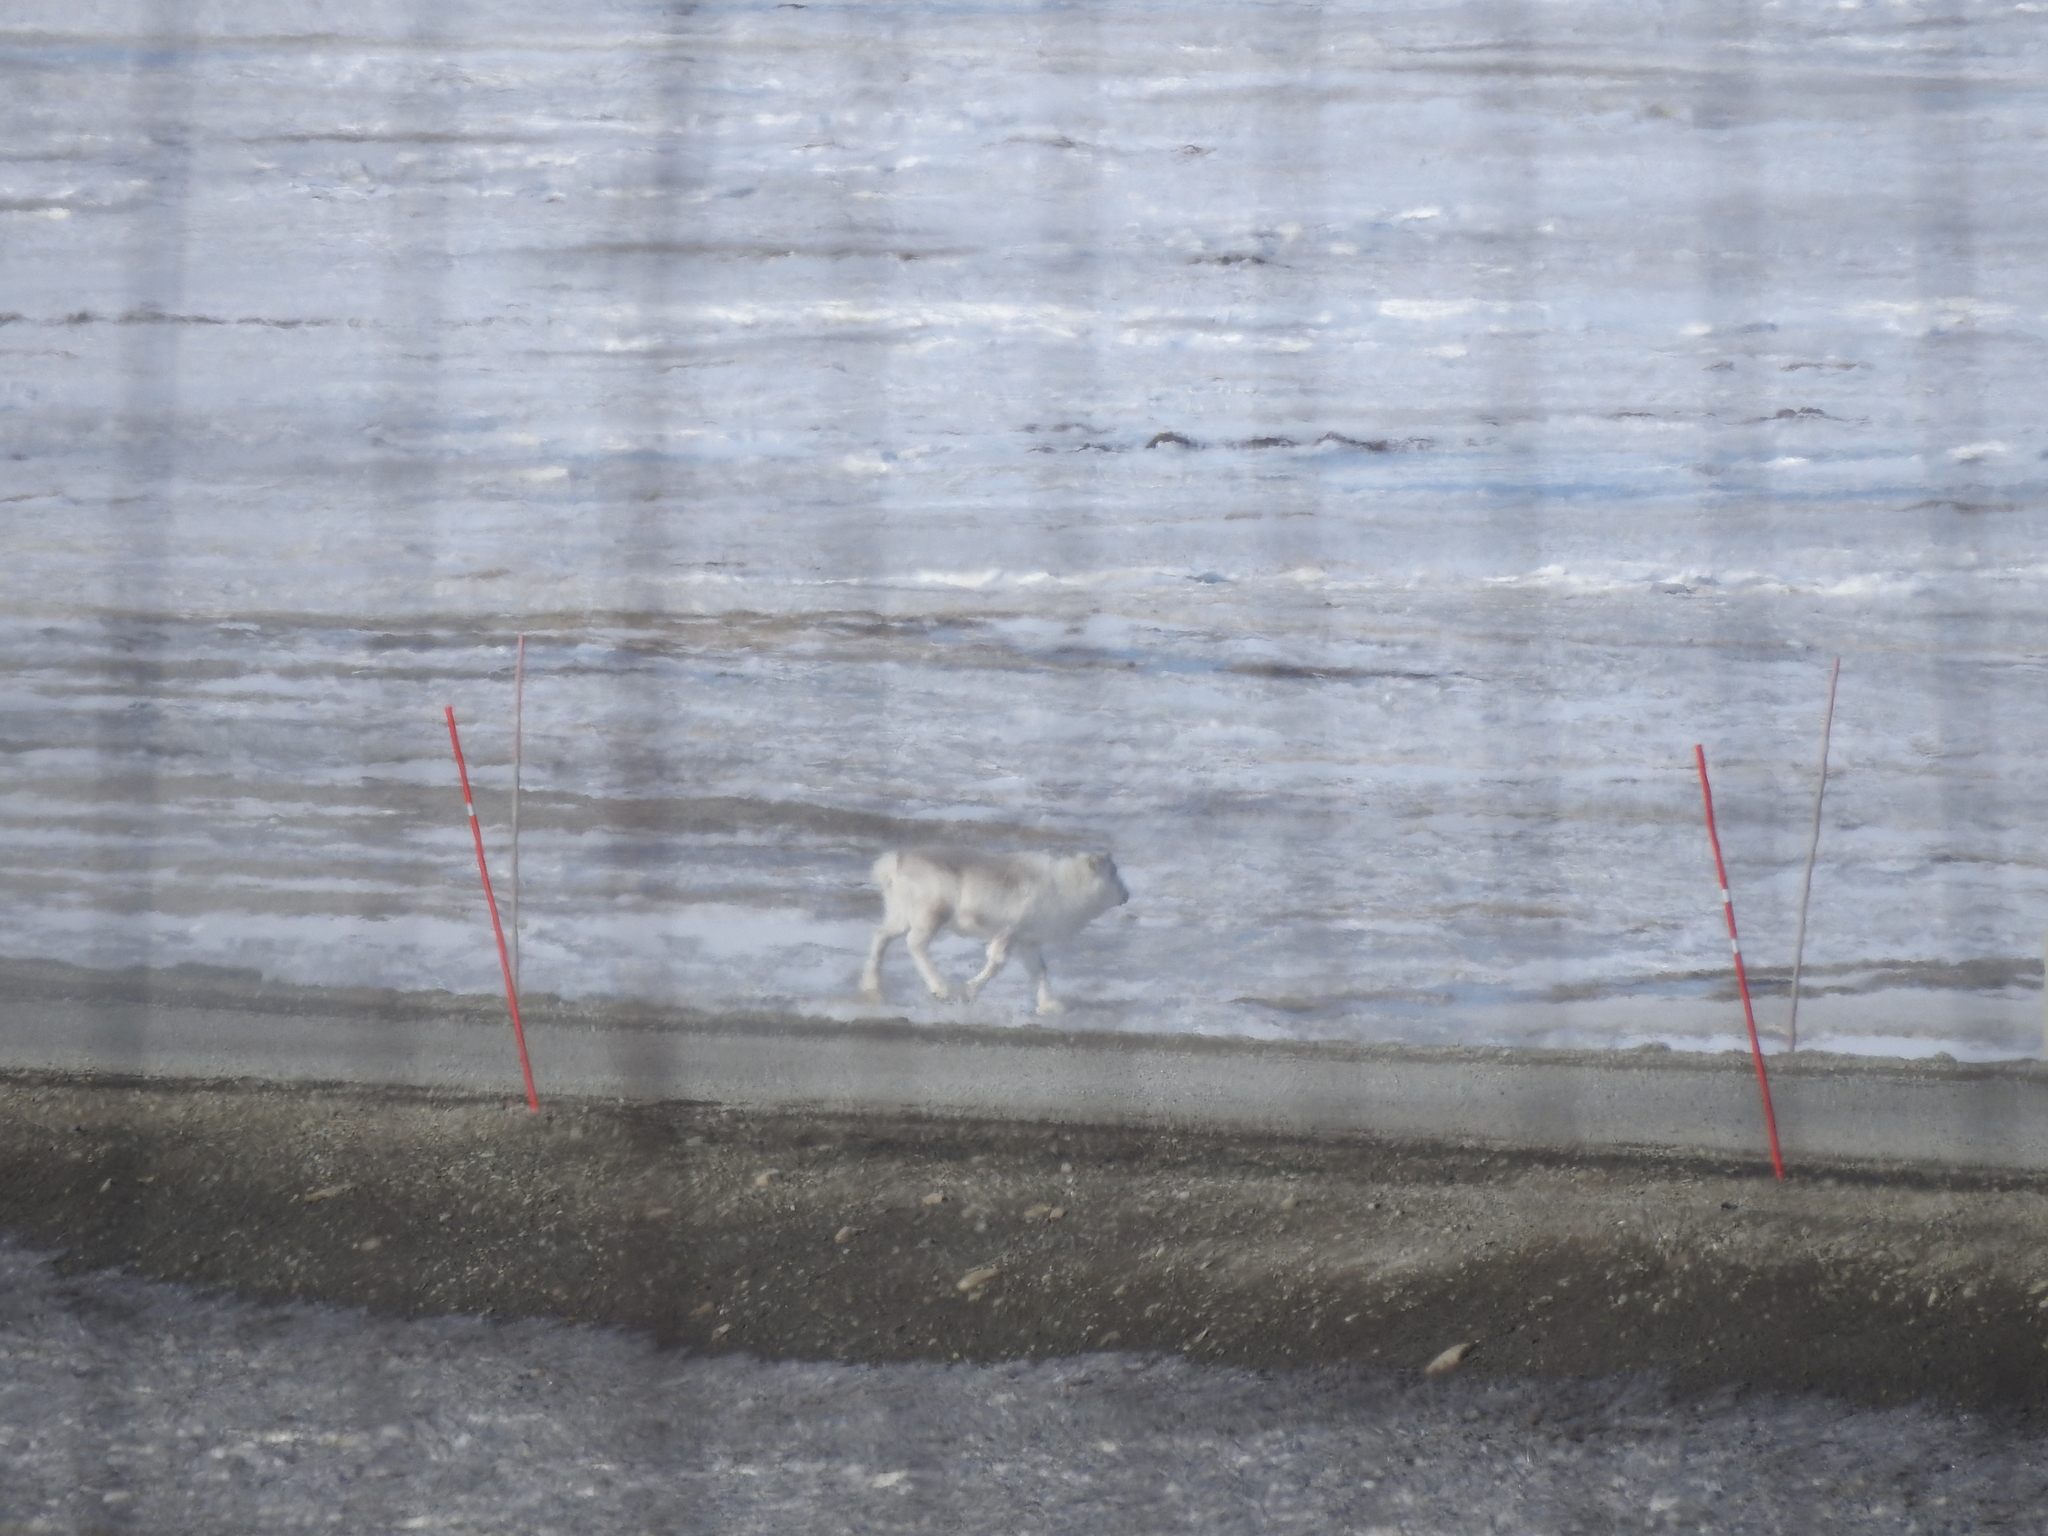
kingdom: Animalia
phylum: Chordata
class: Mammalia
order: Artiodactyla
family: Cervidae
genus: Rangifer
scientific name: Rangifer tarandus
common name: Reindeer
